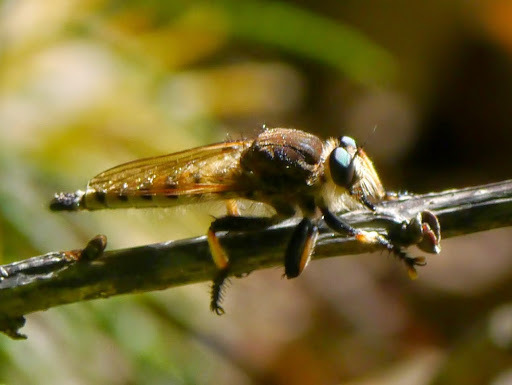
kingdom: Animalia
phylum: Arthropoda
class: Insecta
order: Diptera
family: Asilidae
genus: Promachus
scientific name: Promachus rufipes
